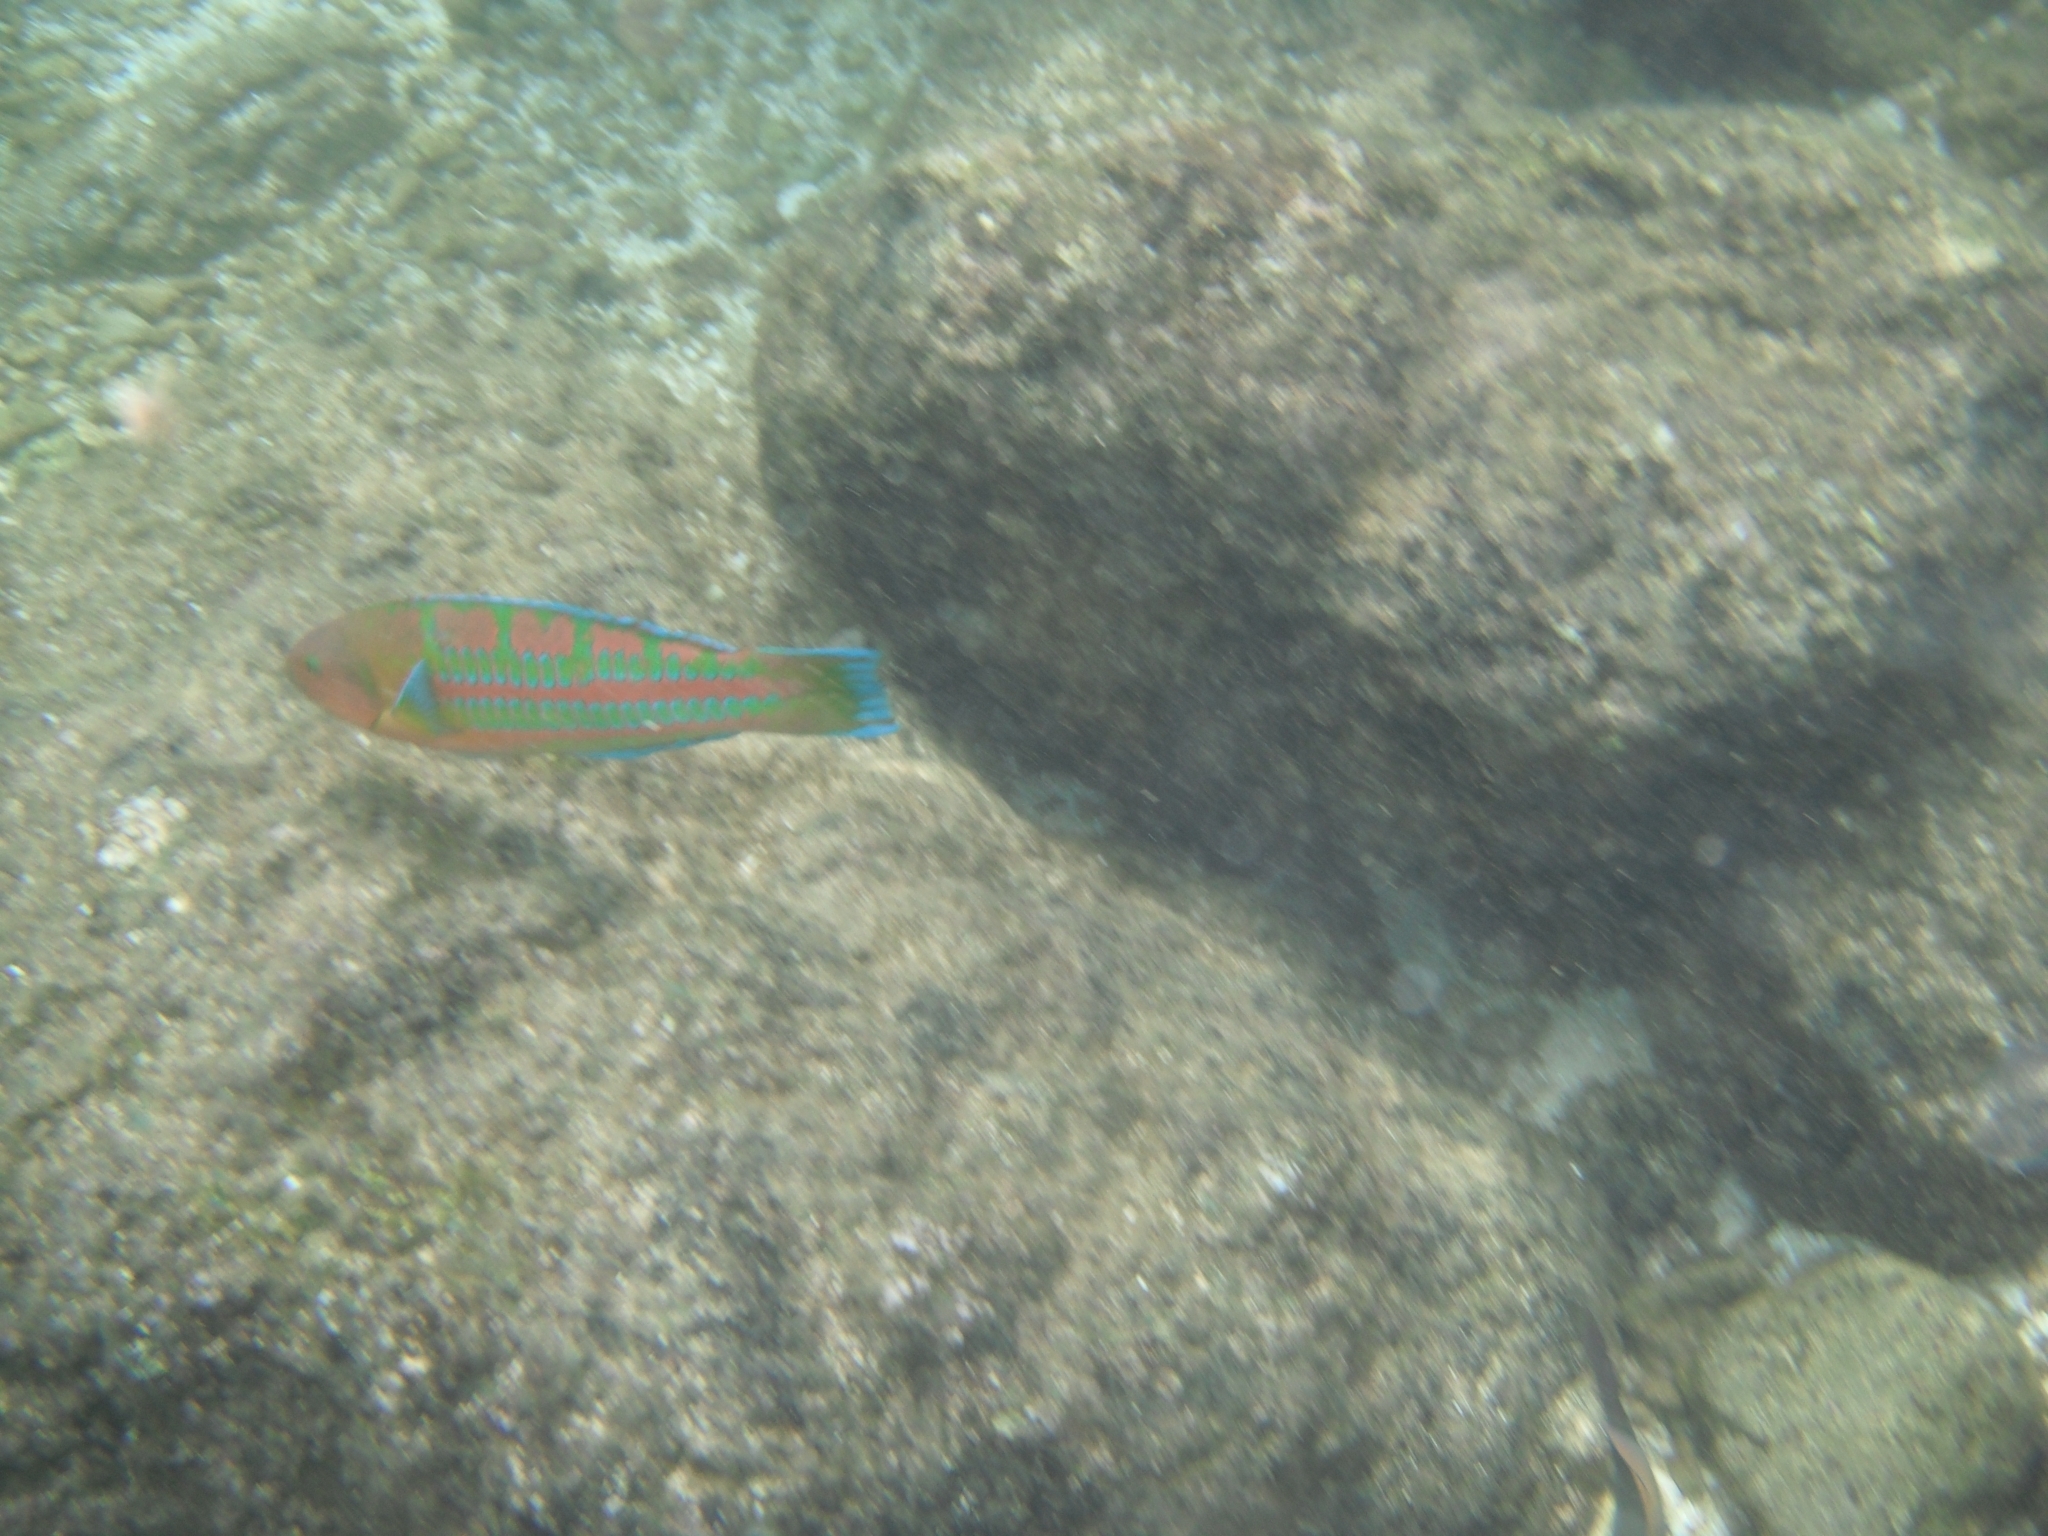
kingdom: Animalia
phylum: Chordata
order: Perciformes
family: Labridae
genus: Thalassoma
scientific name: Thalassoma trilobatum
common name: Christmas wrasse
